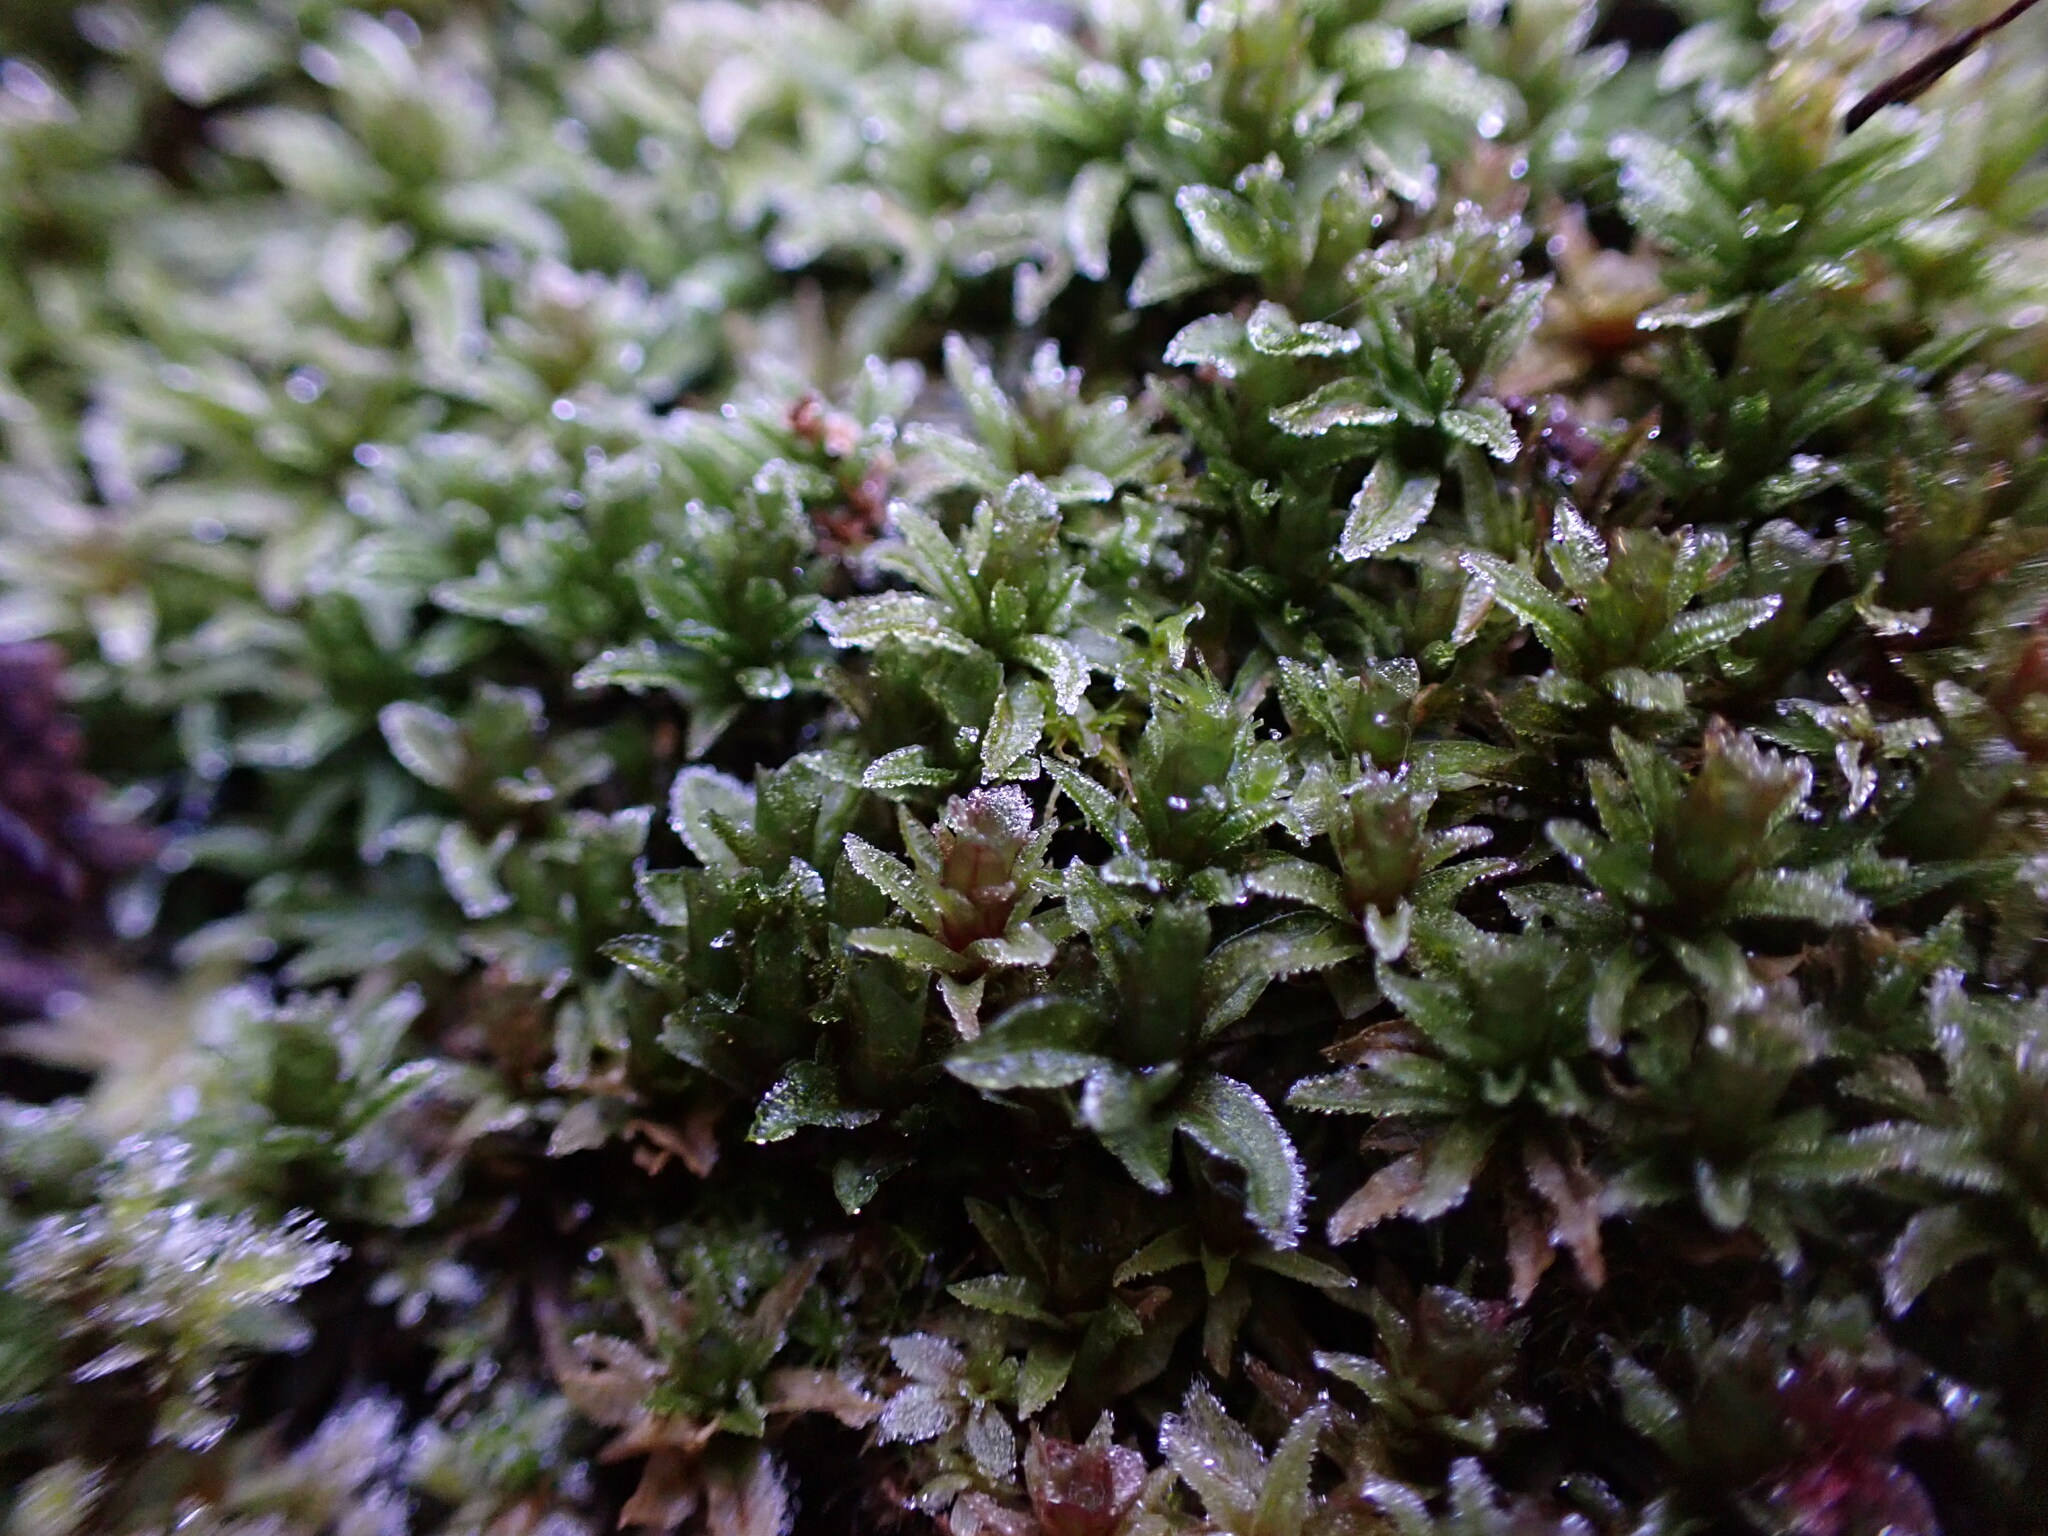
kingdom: Plantae
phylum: Bryophyta
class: Polytrichopsida
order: Polytrichales
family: Polytrichaceae
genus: Atrichum
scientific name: Atrichum selwynii
